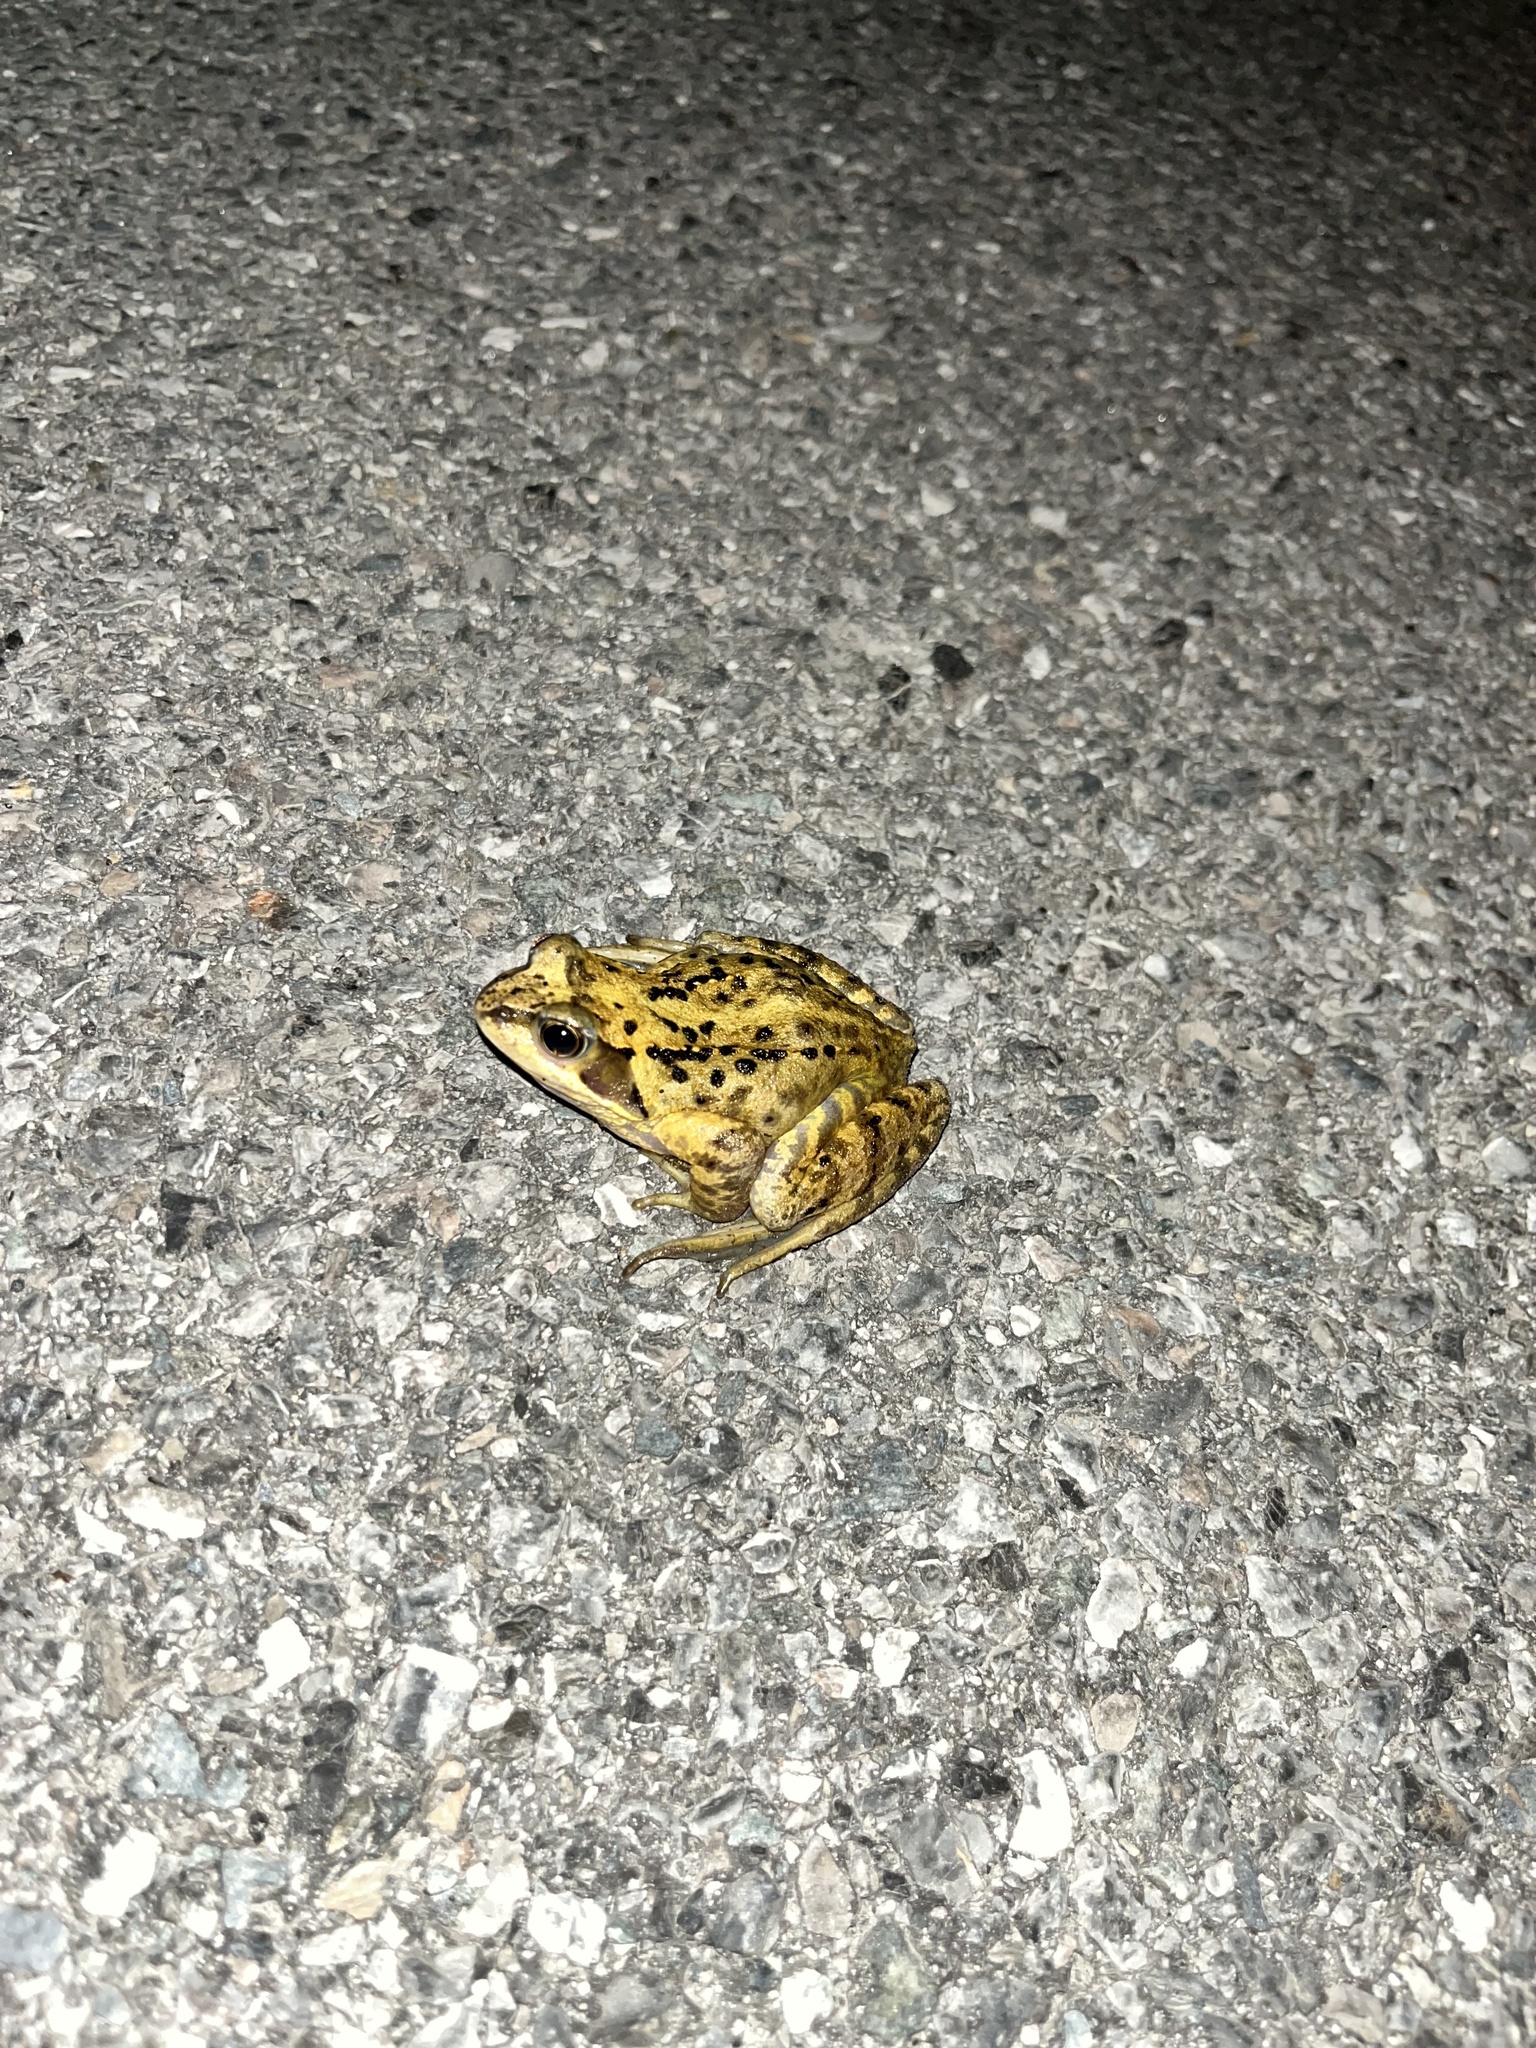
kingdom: Animalia
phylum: Chordata
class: Amphibia
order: Anura
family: Ranidae
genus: Rana
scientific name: Rana temporaria
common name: Common frog
